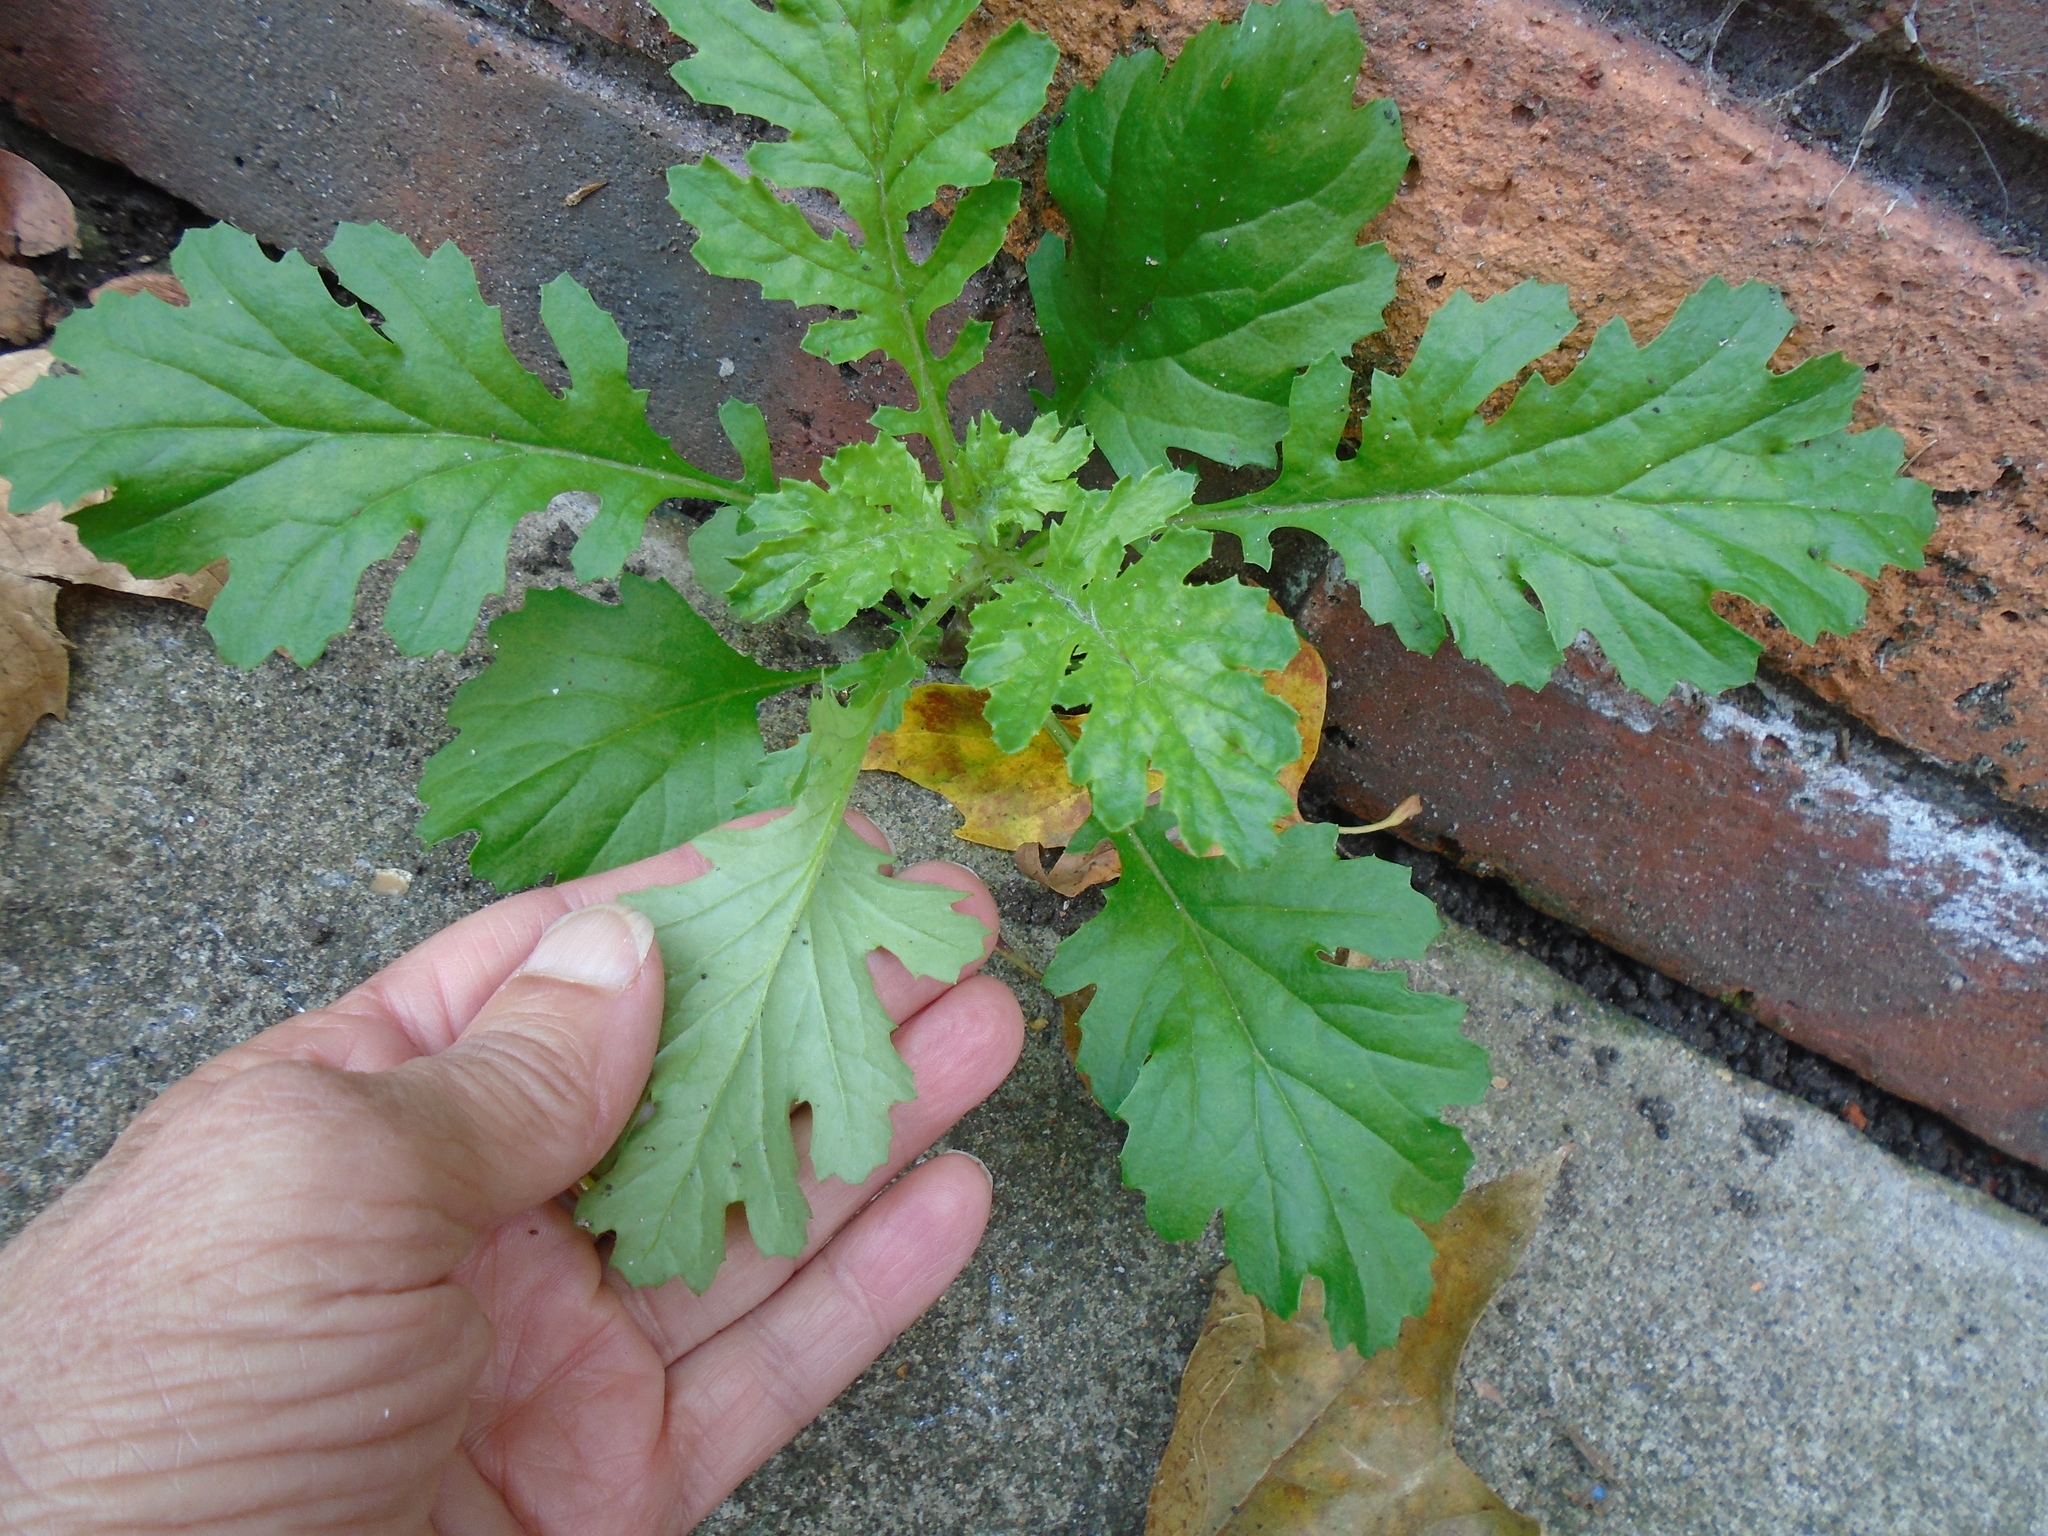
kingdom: Plantae
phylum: Tracheophyta
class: Magnoliopsida
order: Asterales
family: Asteraceae
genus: Jacobaea
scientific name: Jacobaea vulgaris
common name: Stinking willie
